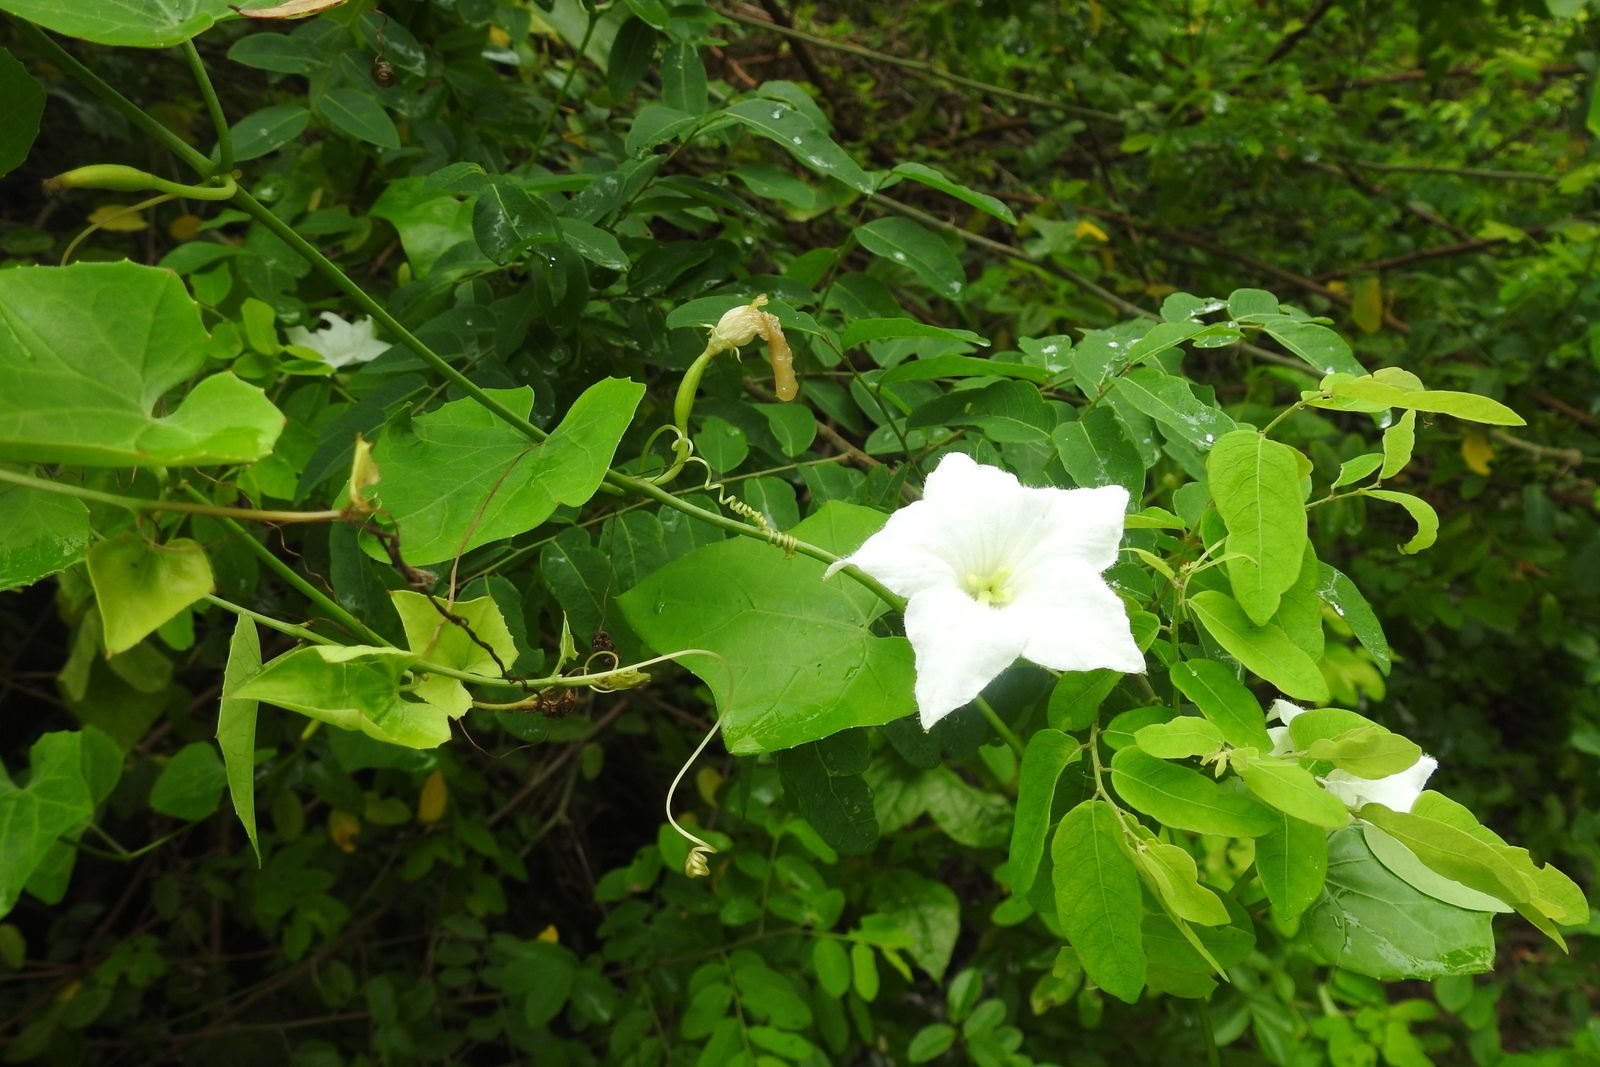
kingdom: Plantae
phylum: Tracheophyta
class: Magnoliopsida
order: Cucurbitales
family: Cucurbitaceae
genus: Coccinia
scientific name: Coccinia grandis
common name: Ivy gourd
